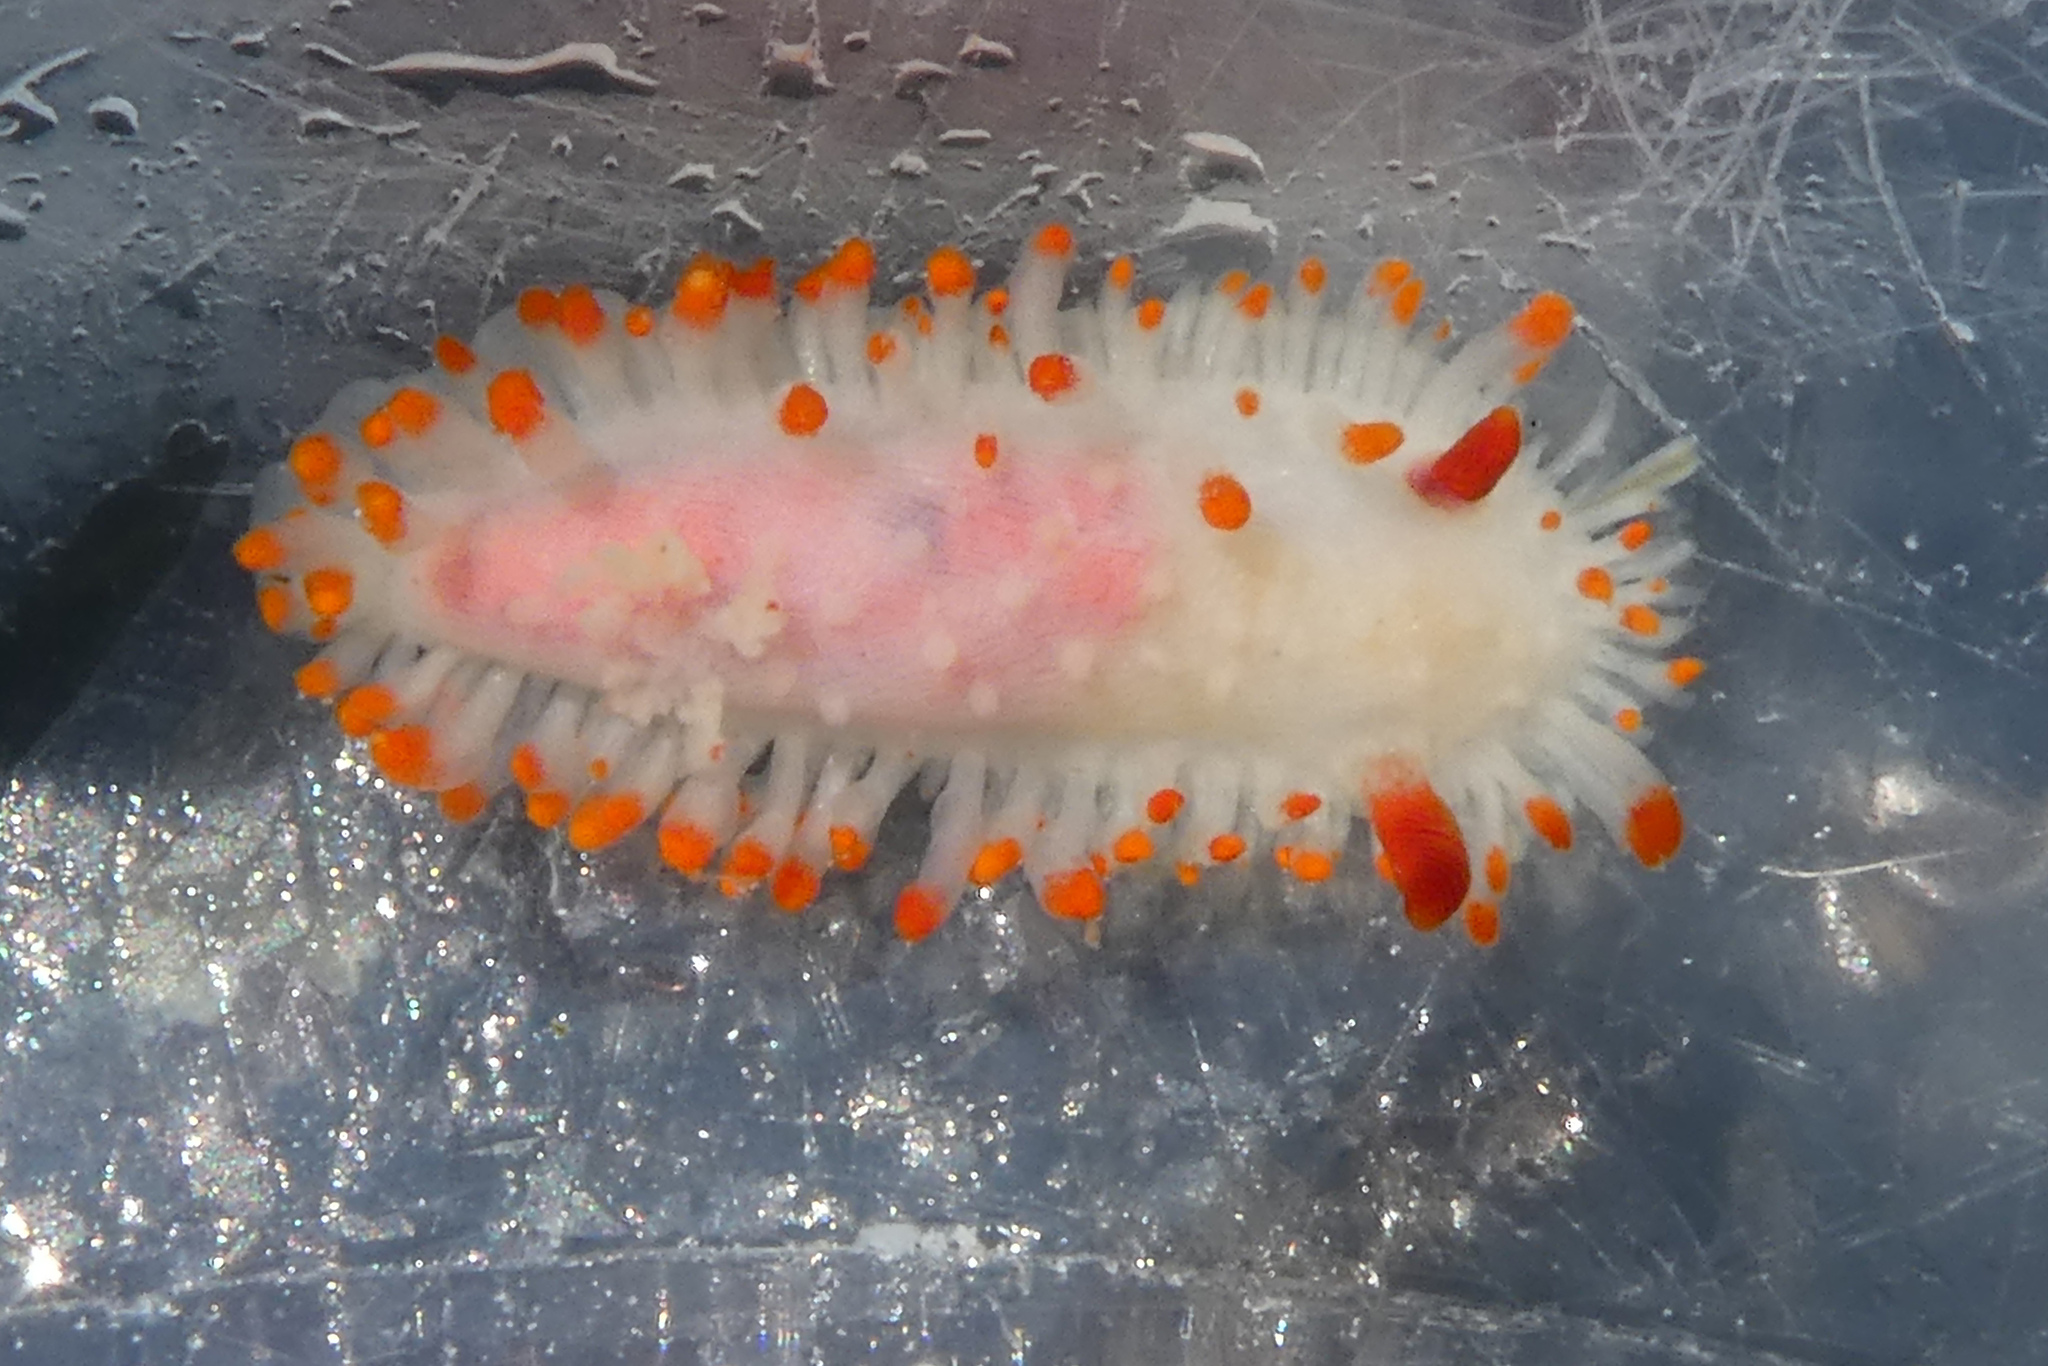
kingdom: Animalia
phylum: Mollusca
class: Gastropoda
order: Nudibranchia
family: Polyceridae
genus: Limacia
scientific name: Limacia cockerelli
